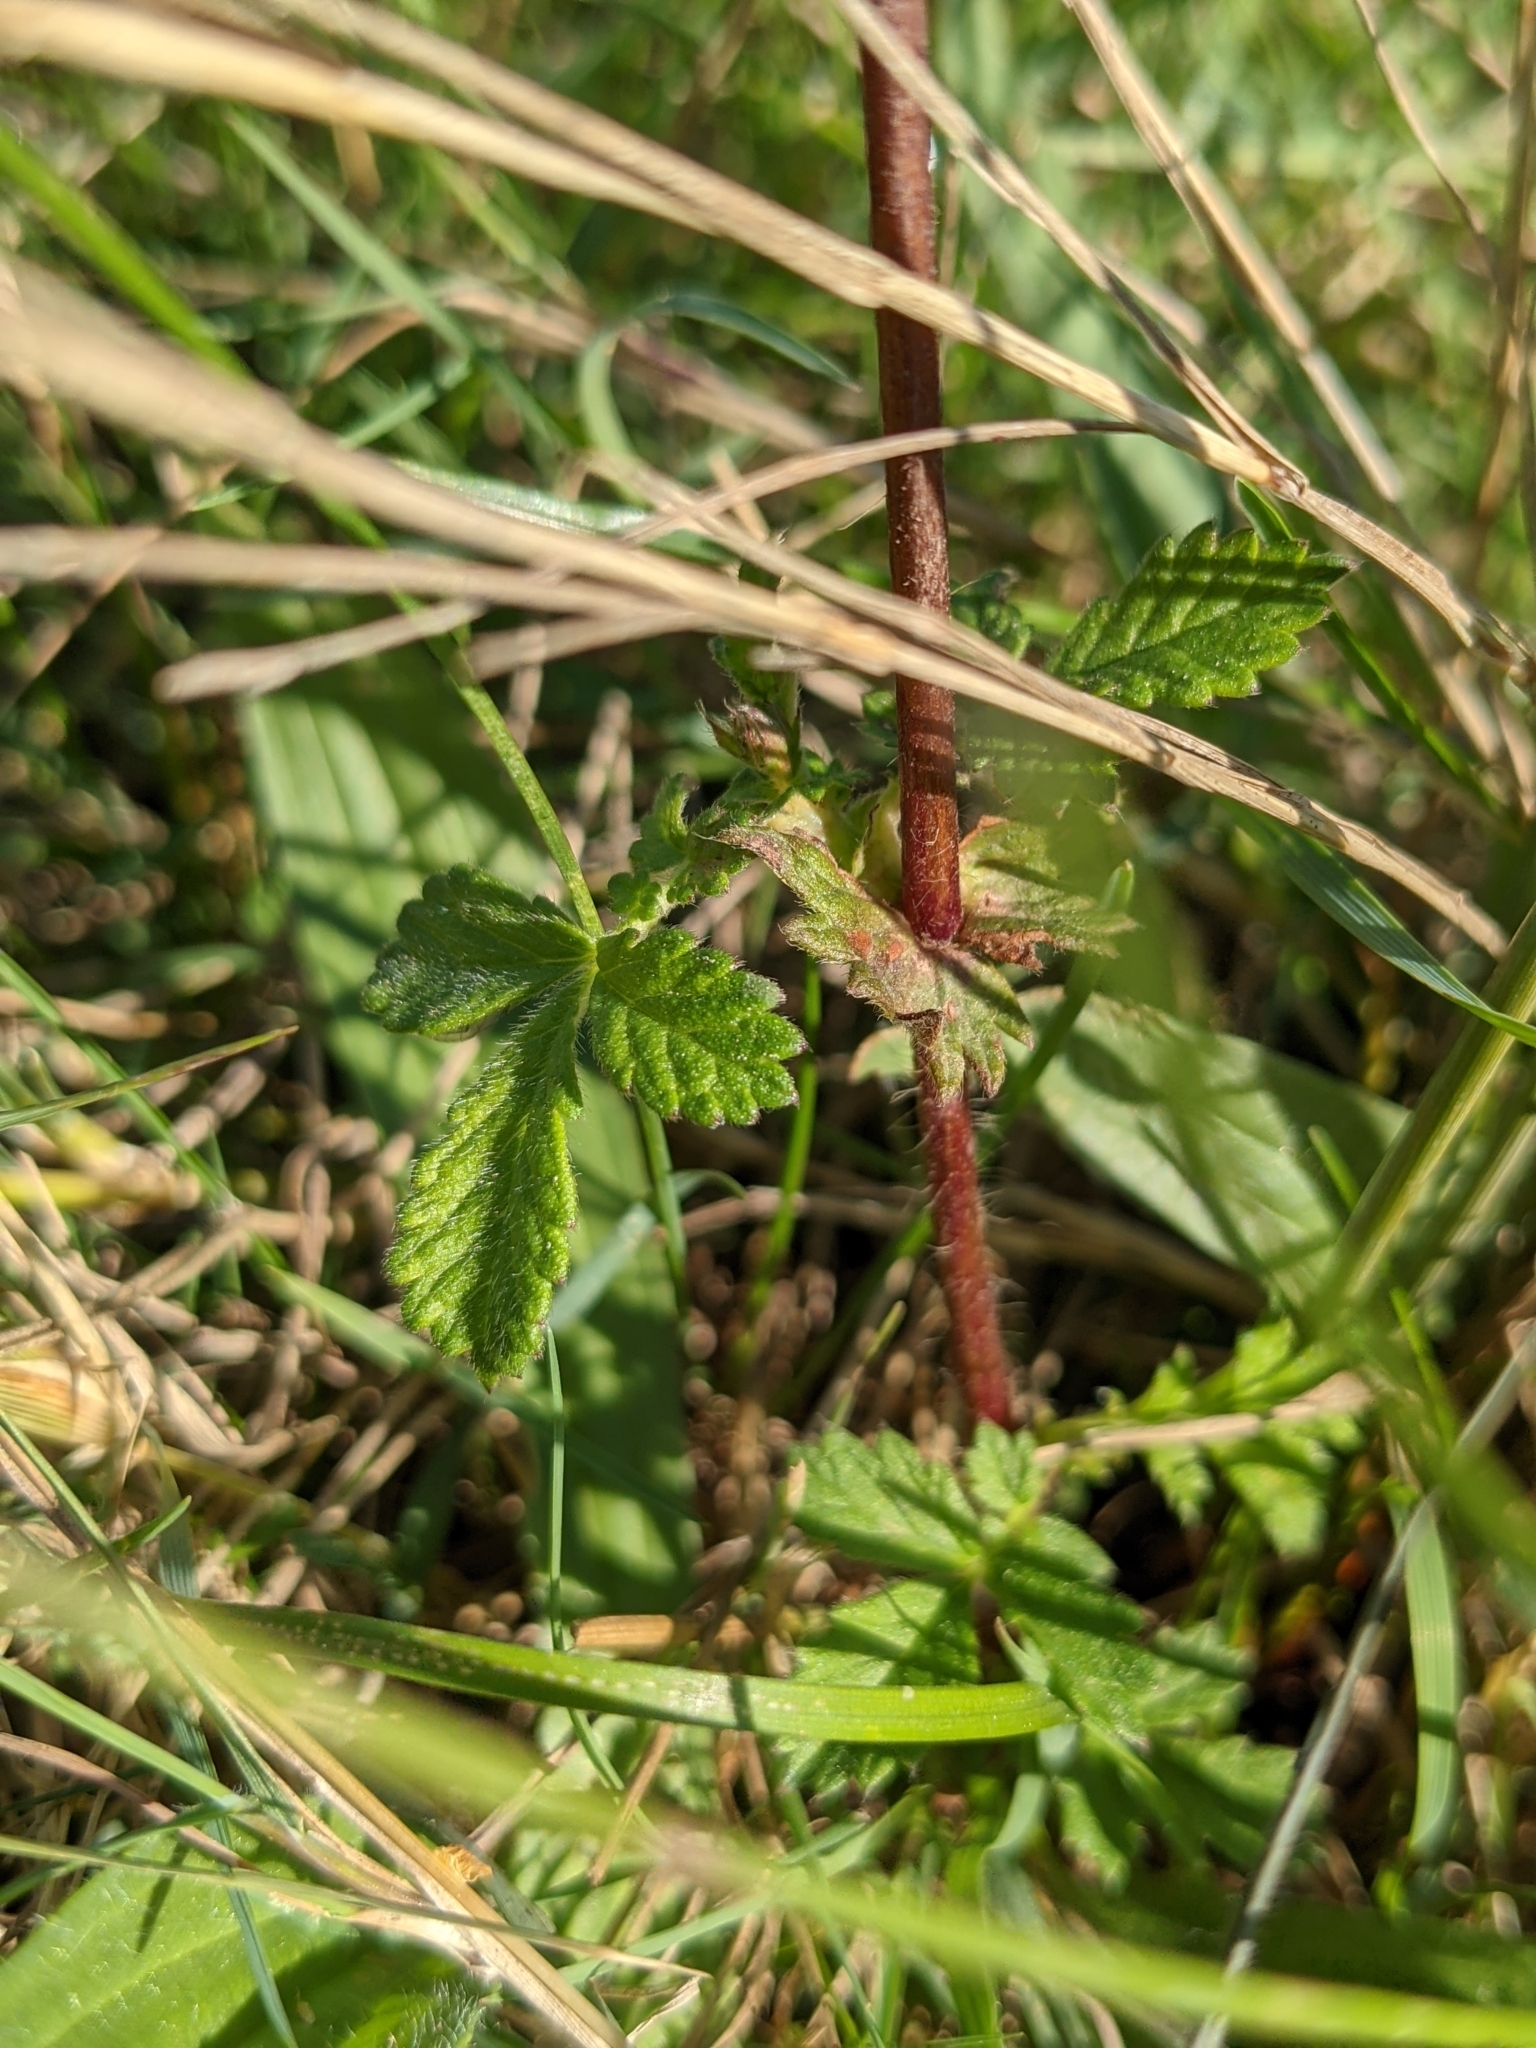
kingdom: Plantae
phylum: Tracheophyta
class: Magnoliopsida
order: Rosales
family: Rosaceae
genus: Agrimonia
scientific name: Agrimonia eupatoria
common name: Agrimony
